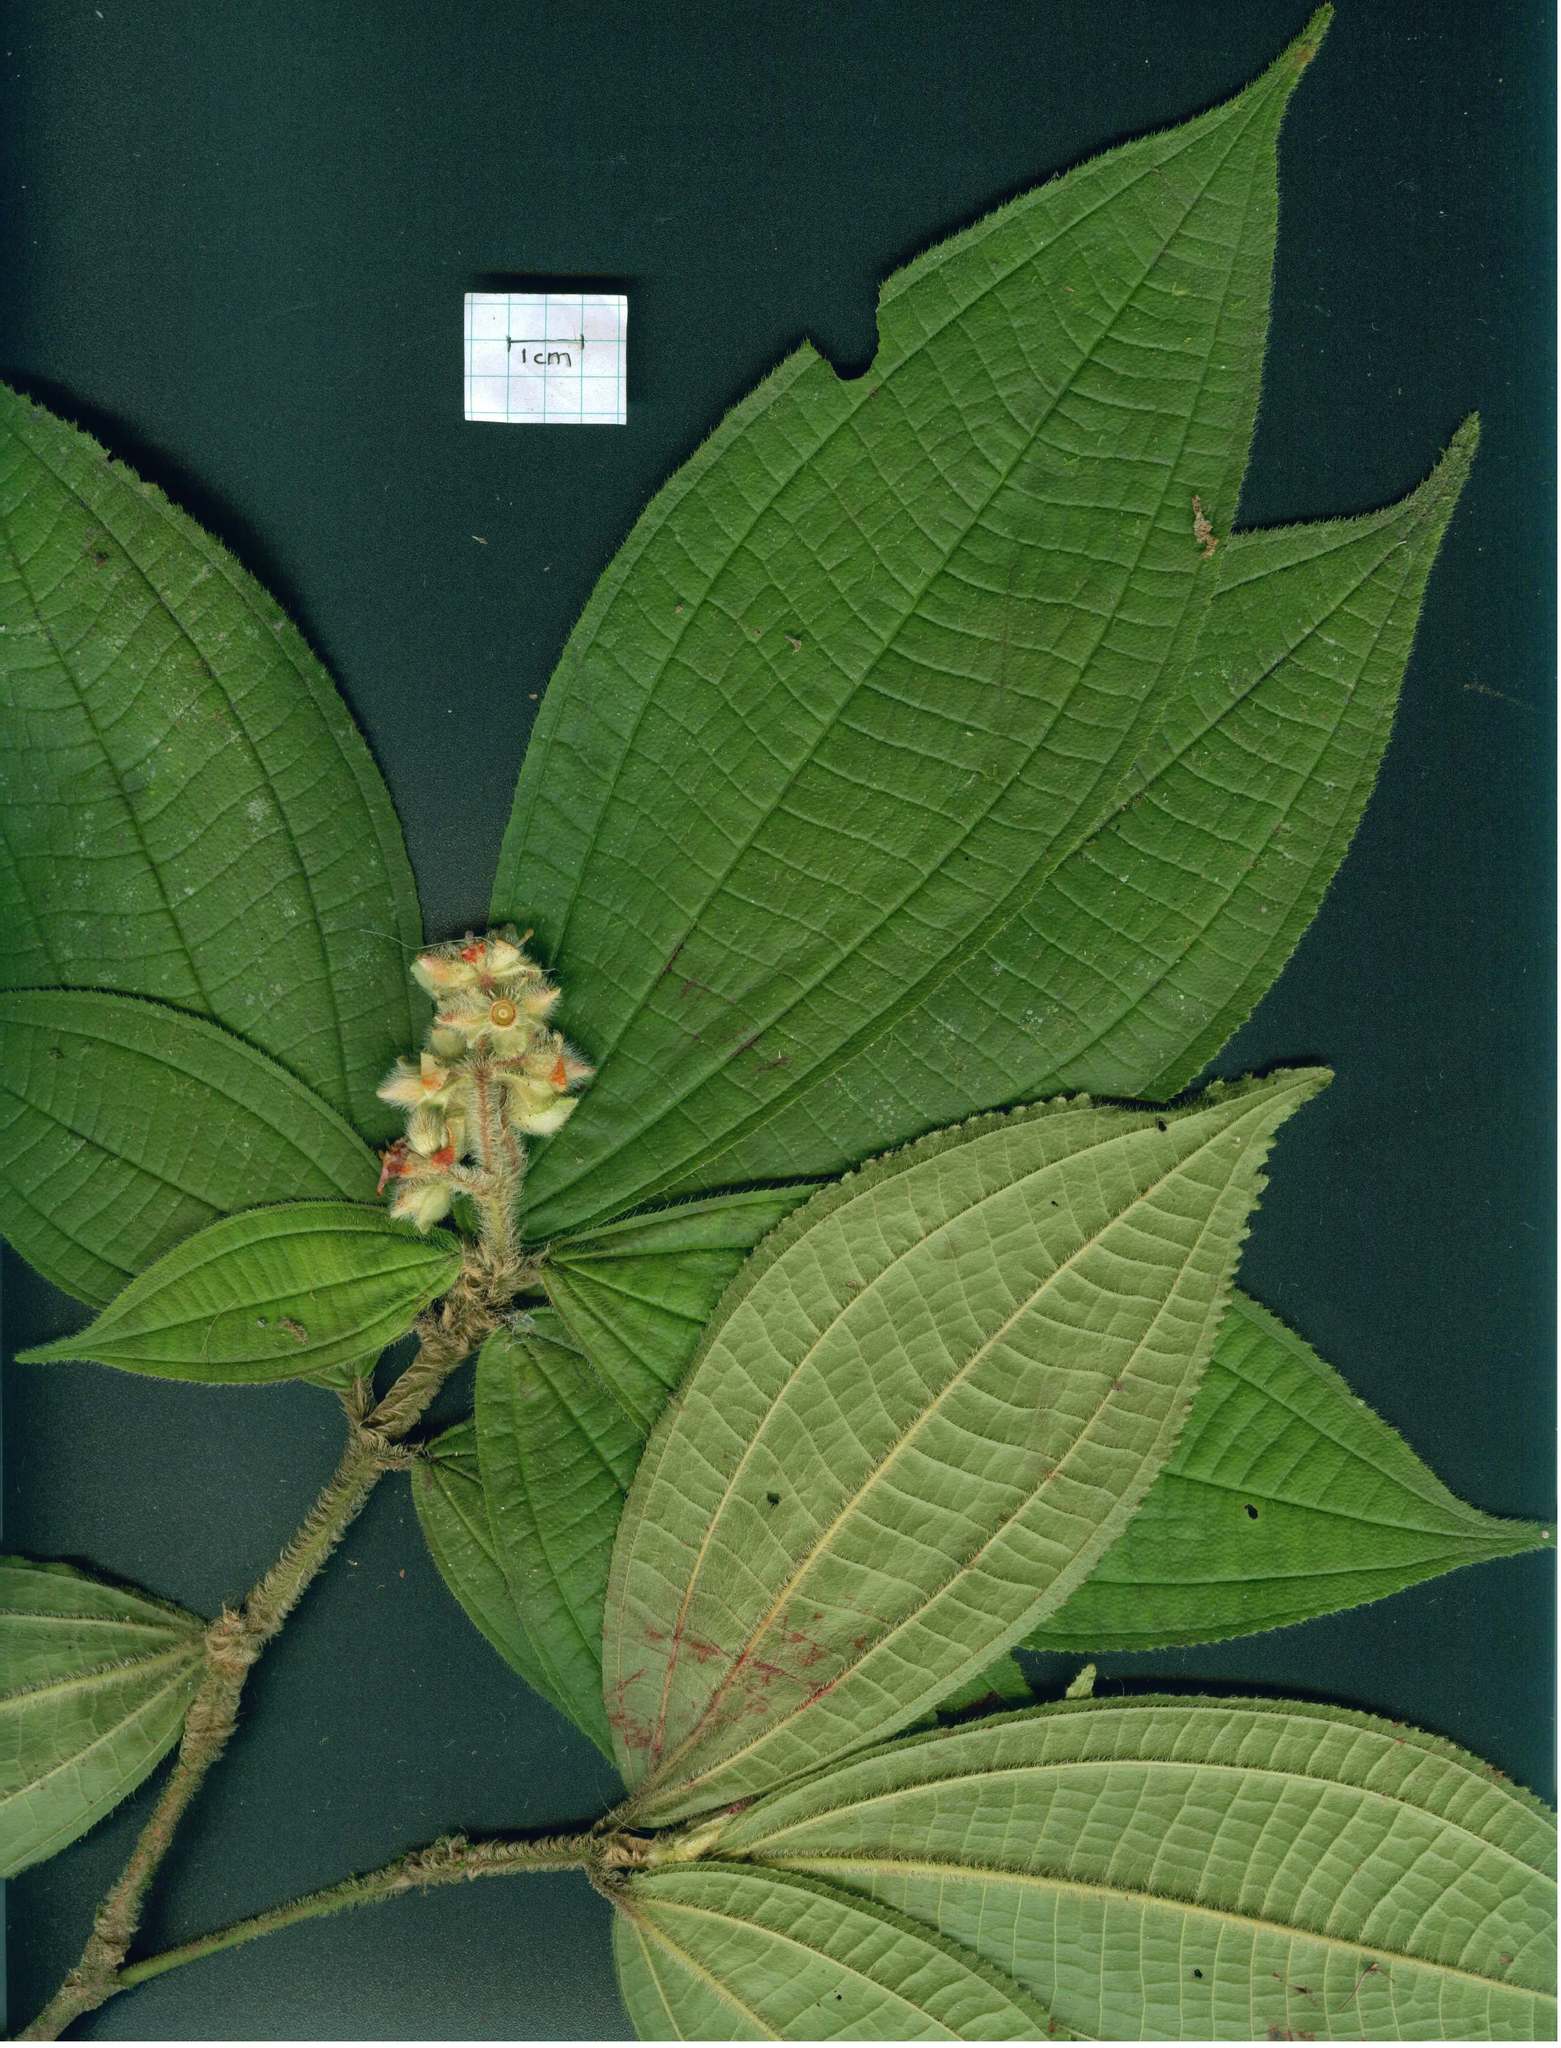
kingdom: Plantae
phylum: Tracheophyta
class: Magnoliopsida
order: Myrtales
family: Melastomataceae
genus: Miconia
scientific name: Miconia barbinervis
